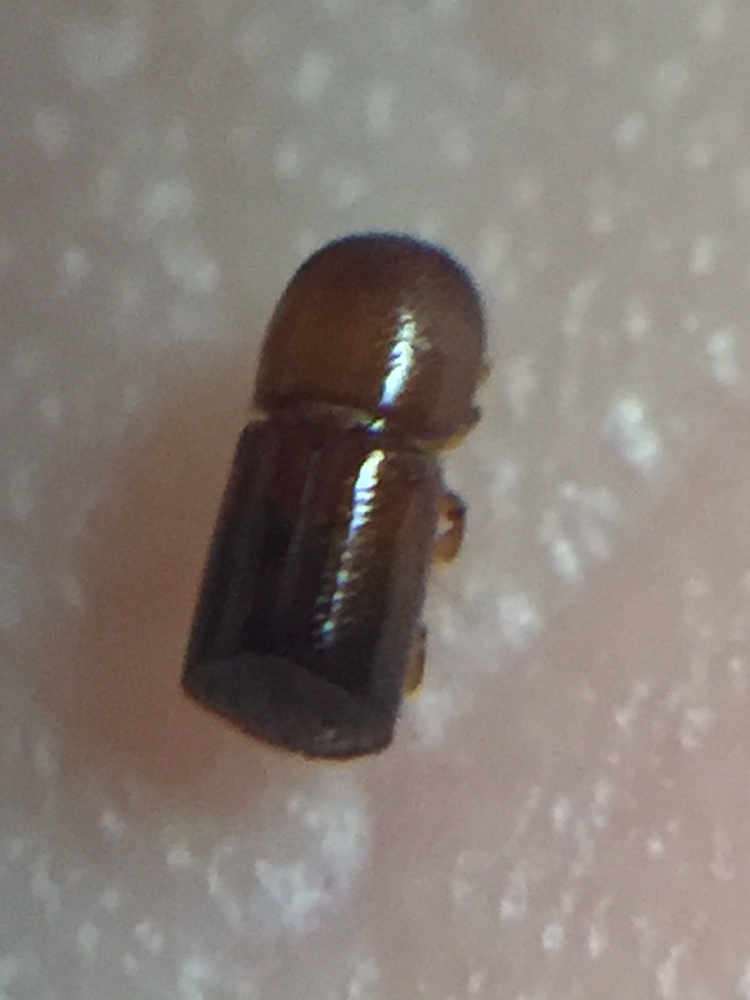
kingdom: Animalia
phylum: Arthropoda
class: Insecta
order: Coleoptera
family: Curculionidae
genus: Amasa
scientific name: Amasa truncatus
